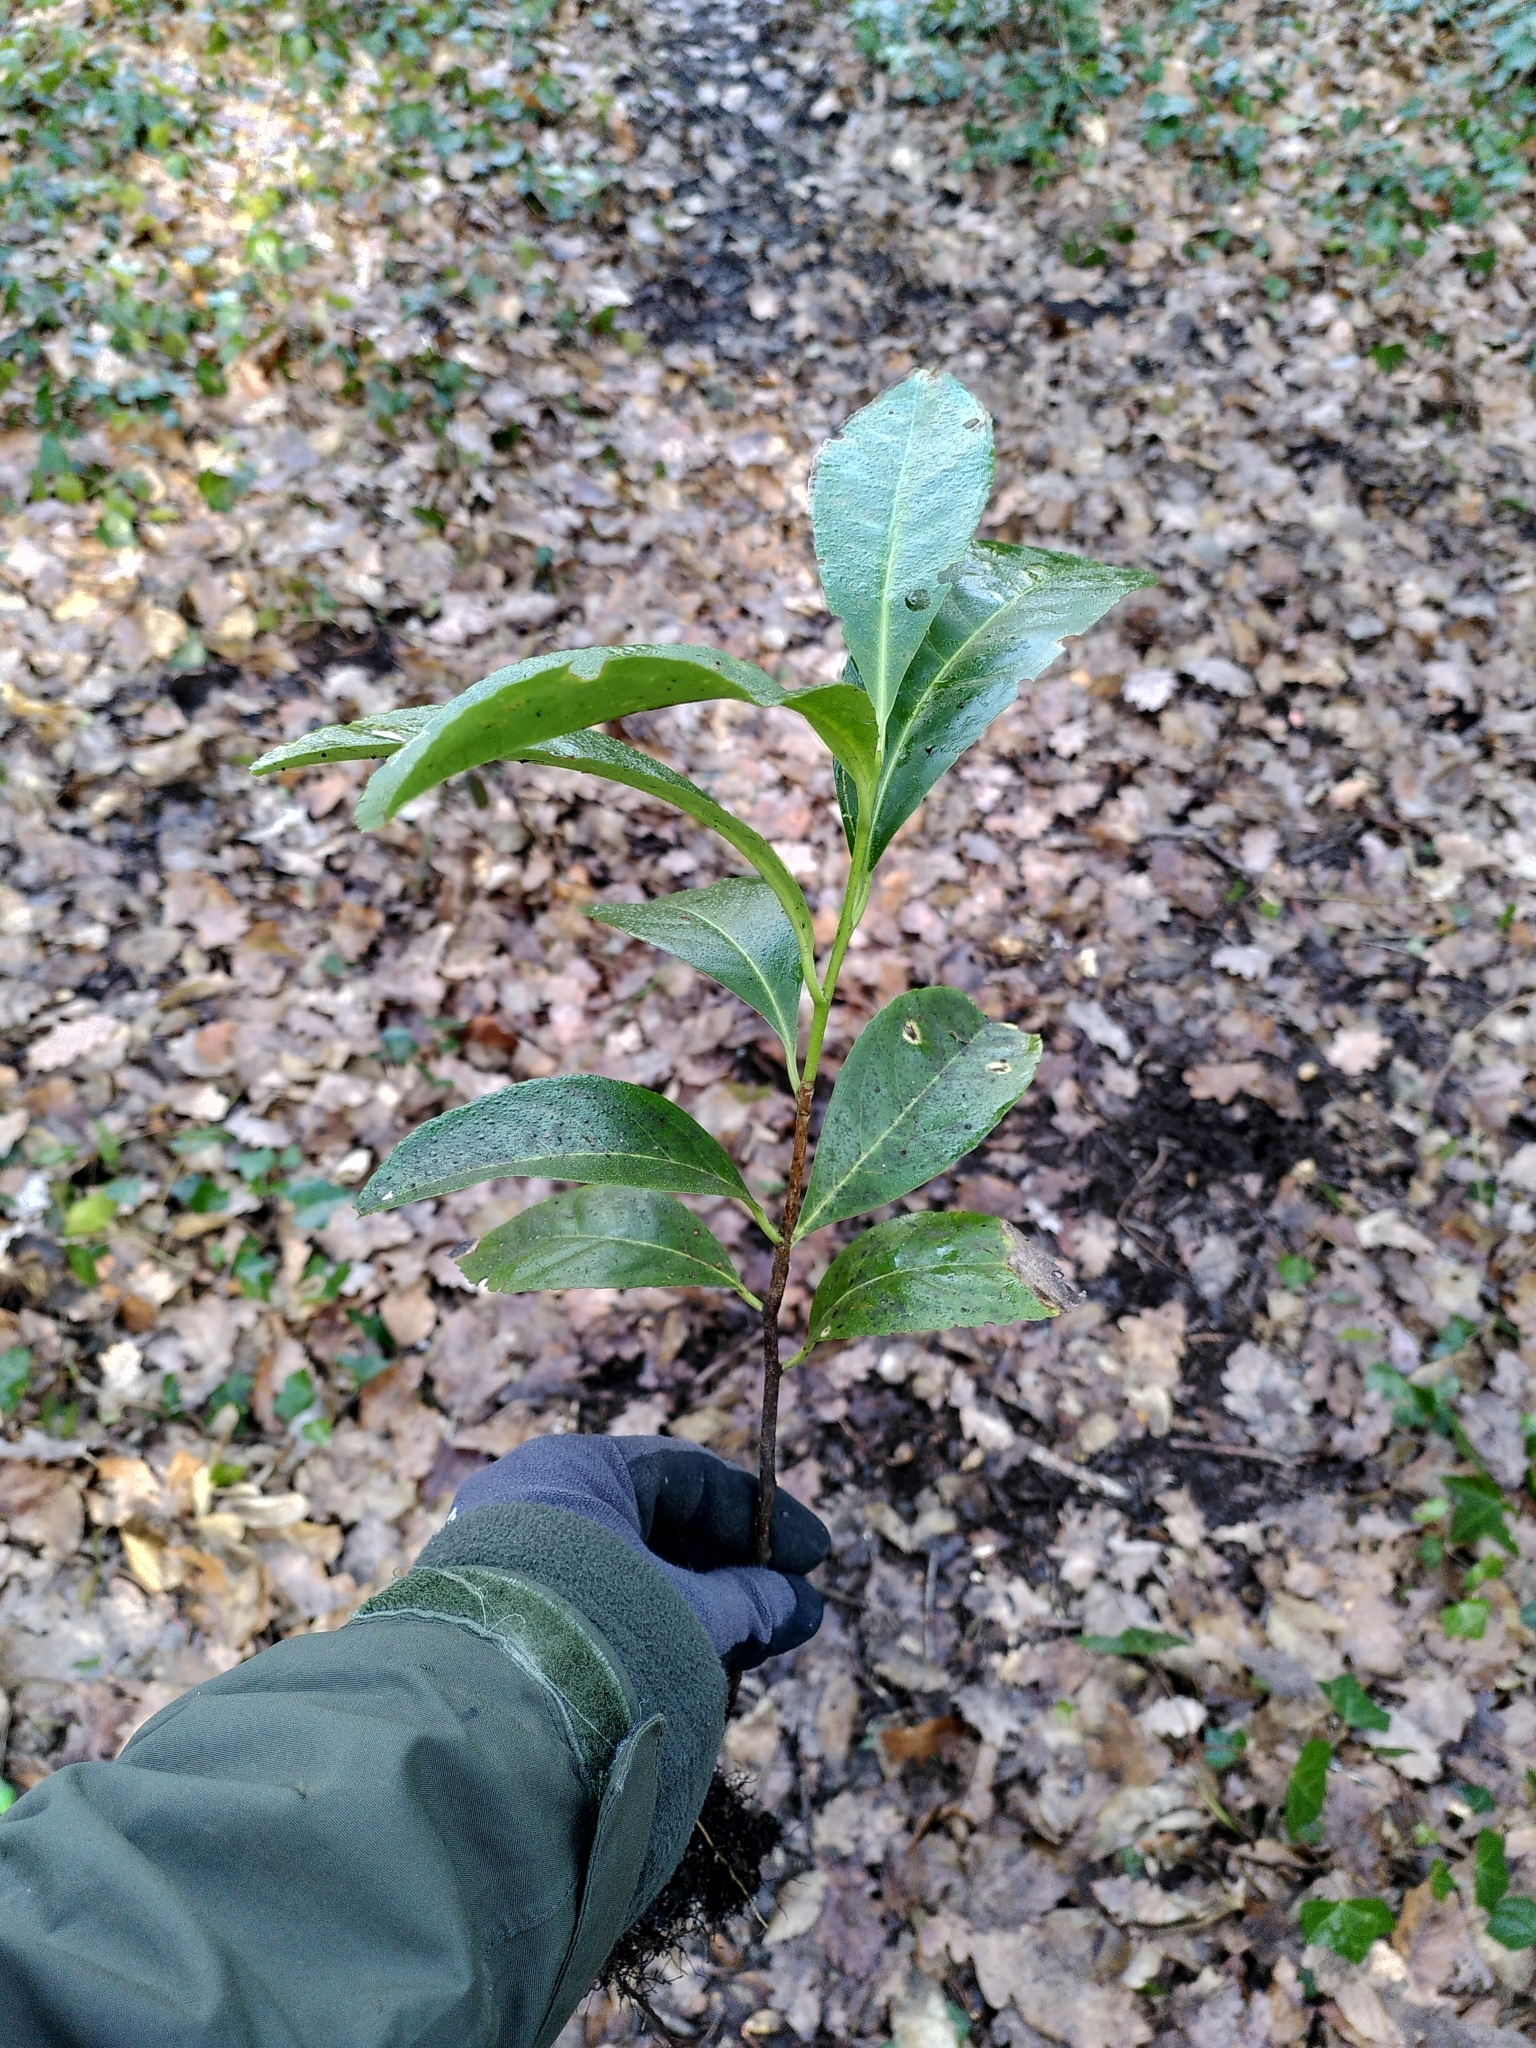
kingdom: Plantae
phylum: Tracheophyta
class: Magnoliopsida
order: Rosales
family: Rosaceae
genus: Prunus
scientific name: Prunus laurocerasus
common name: Cherry laurel
